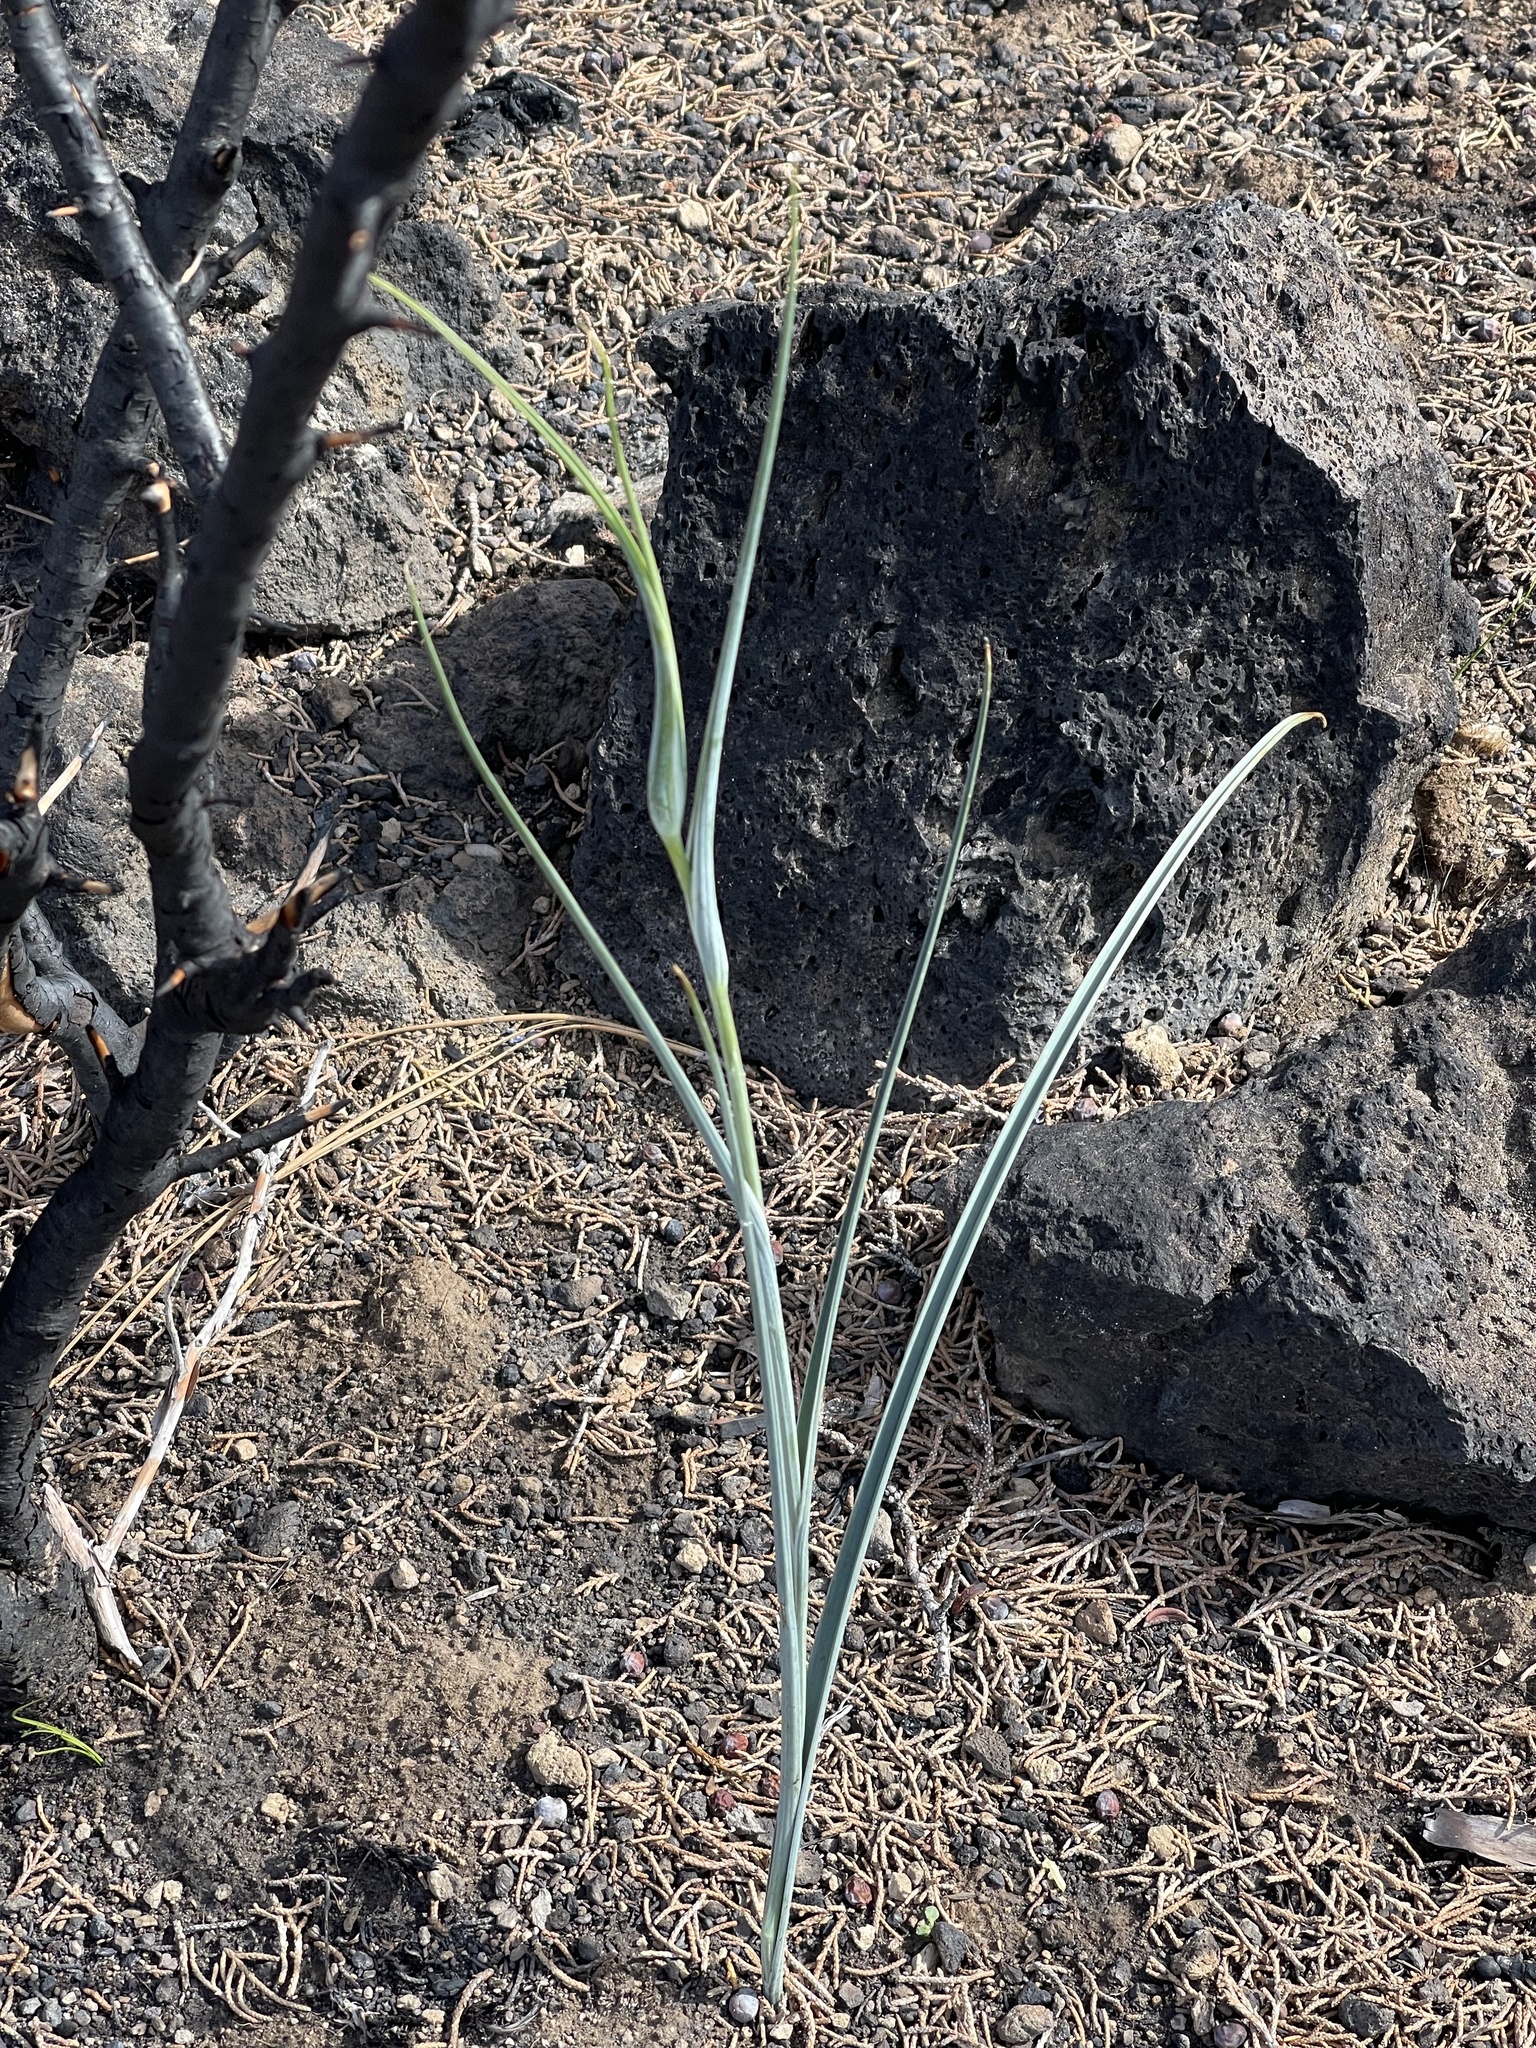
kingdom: Plantae
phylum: Tracheophyta
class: Liliopsida
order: Liliales
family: Liliaceae
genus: Calochortus
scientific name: Calochortus macrocarpus
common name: Green-band mariposa lily
